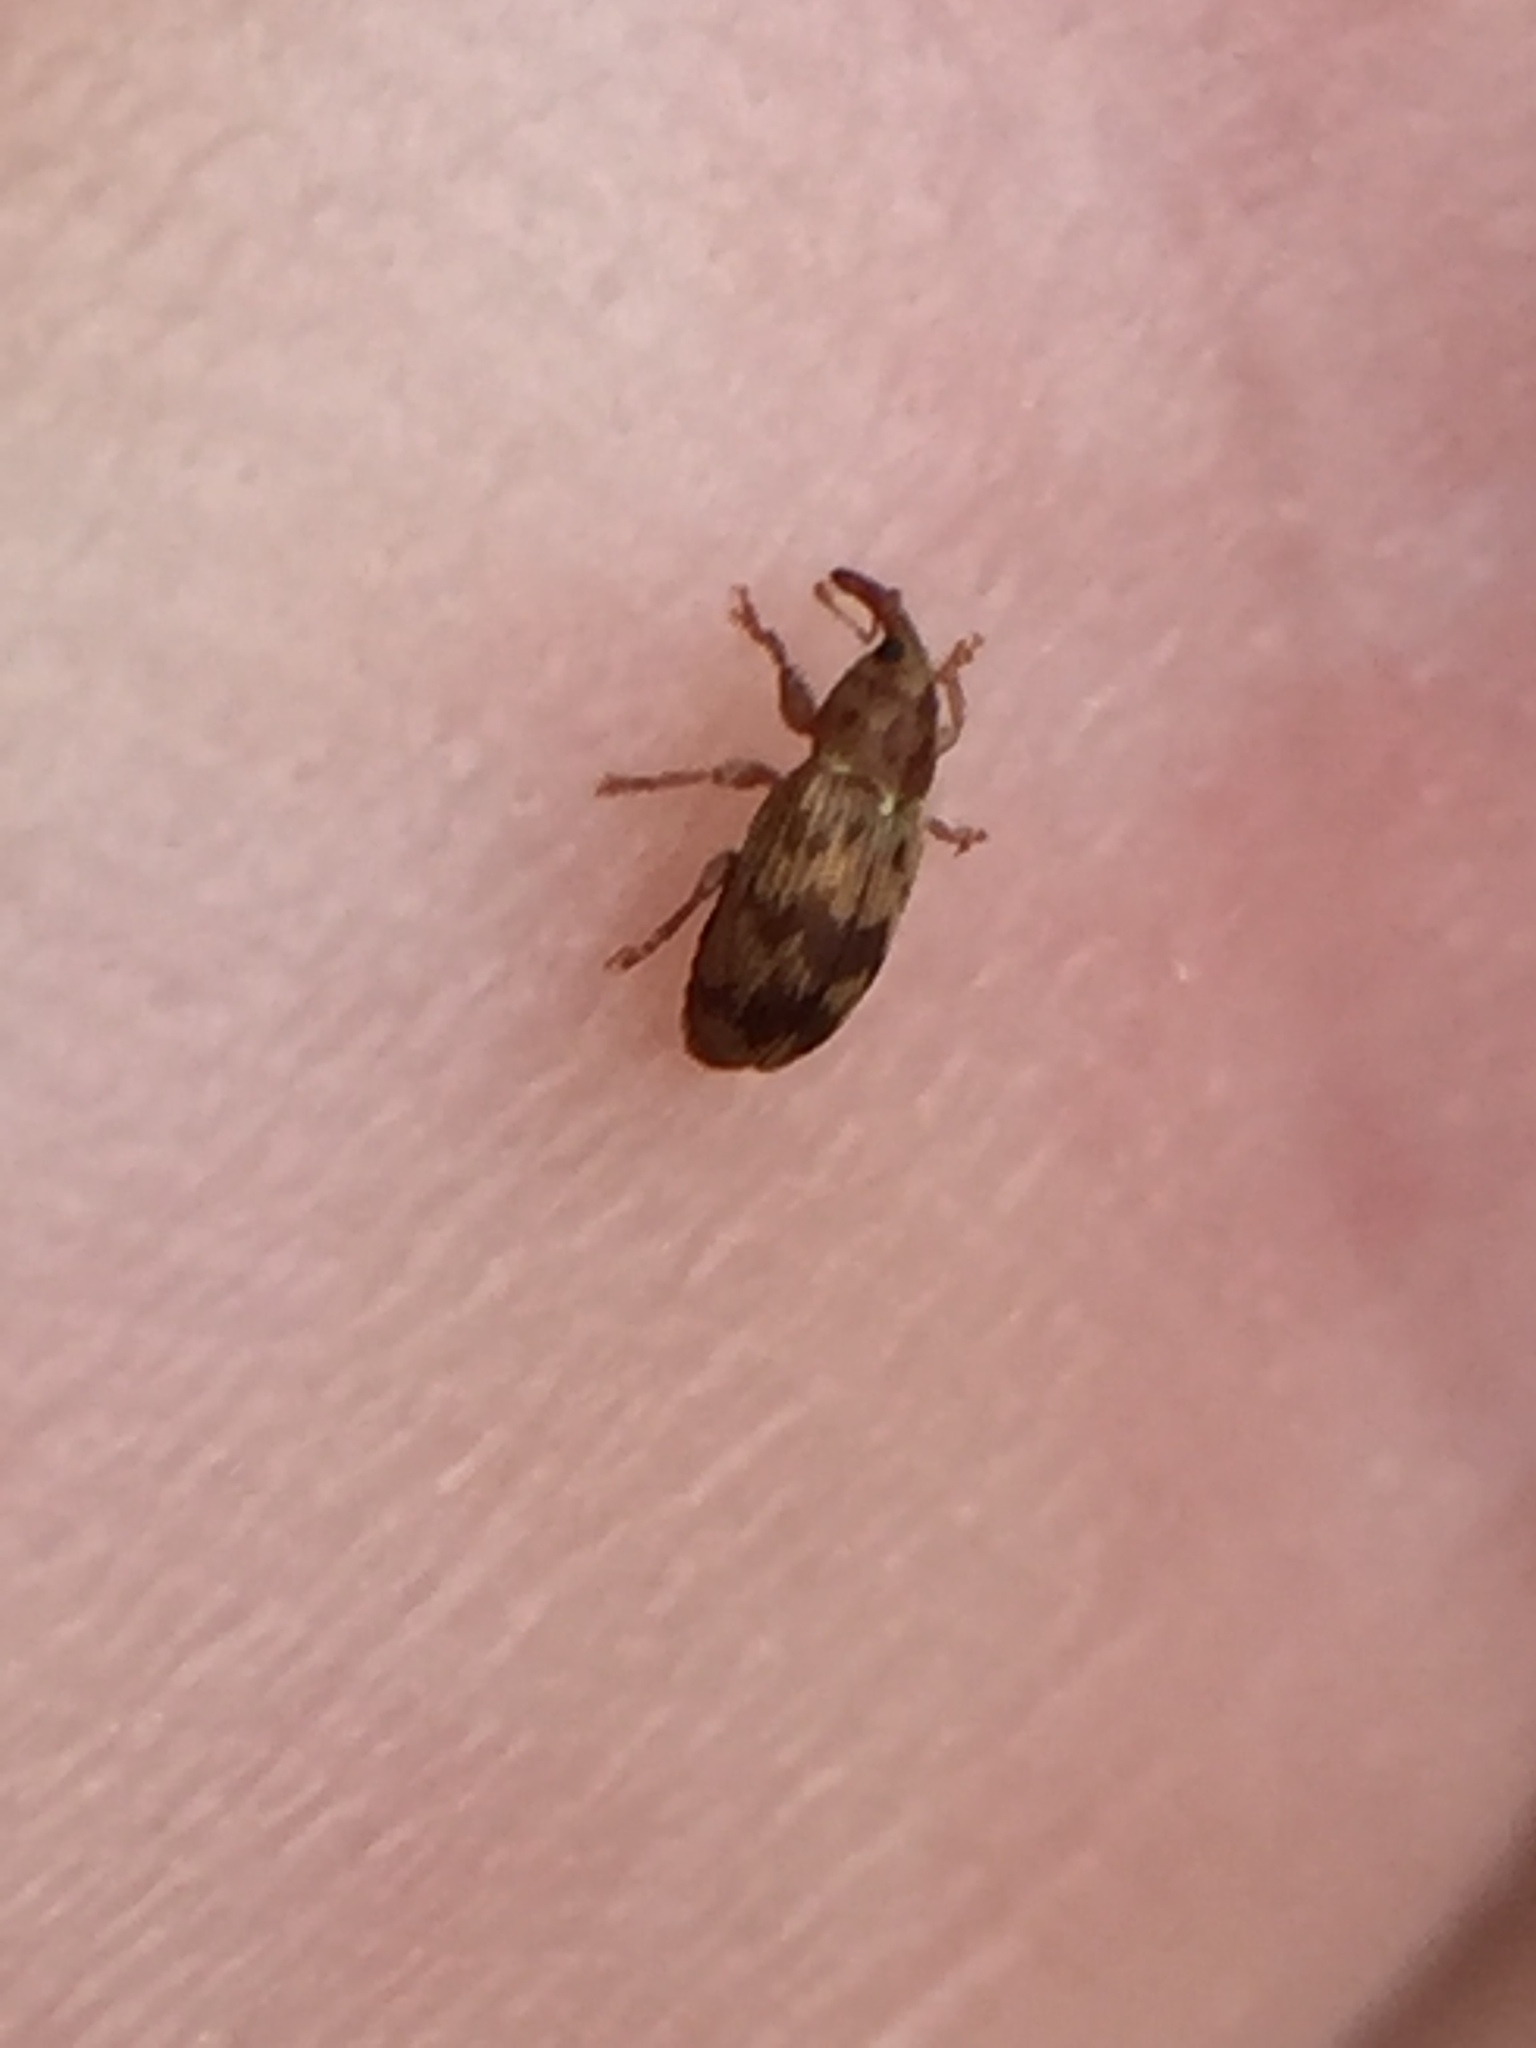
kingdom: Animalia
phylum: Arthropoda
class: Insecta
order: Coleoptera
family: Curculionidae
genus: Epamoebus
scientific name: Epamoebus ziczac
